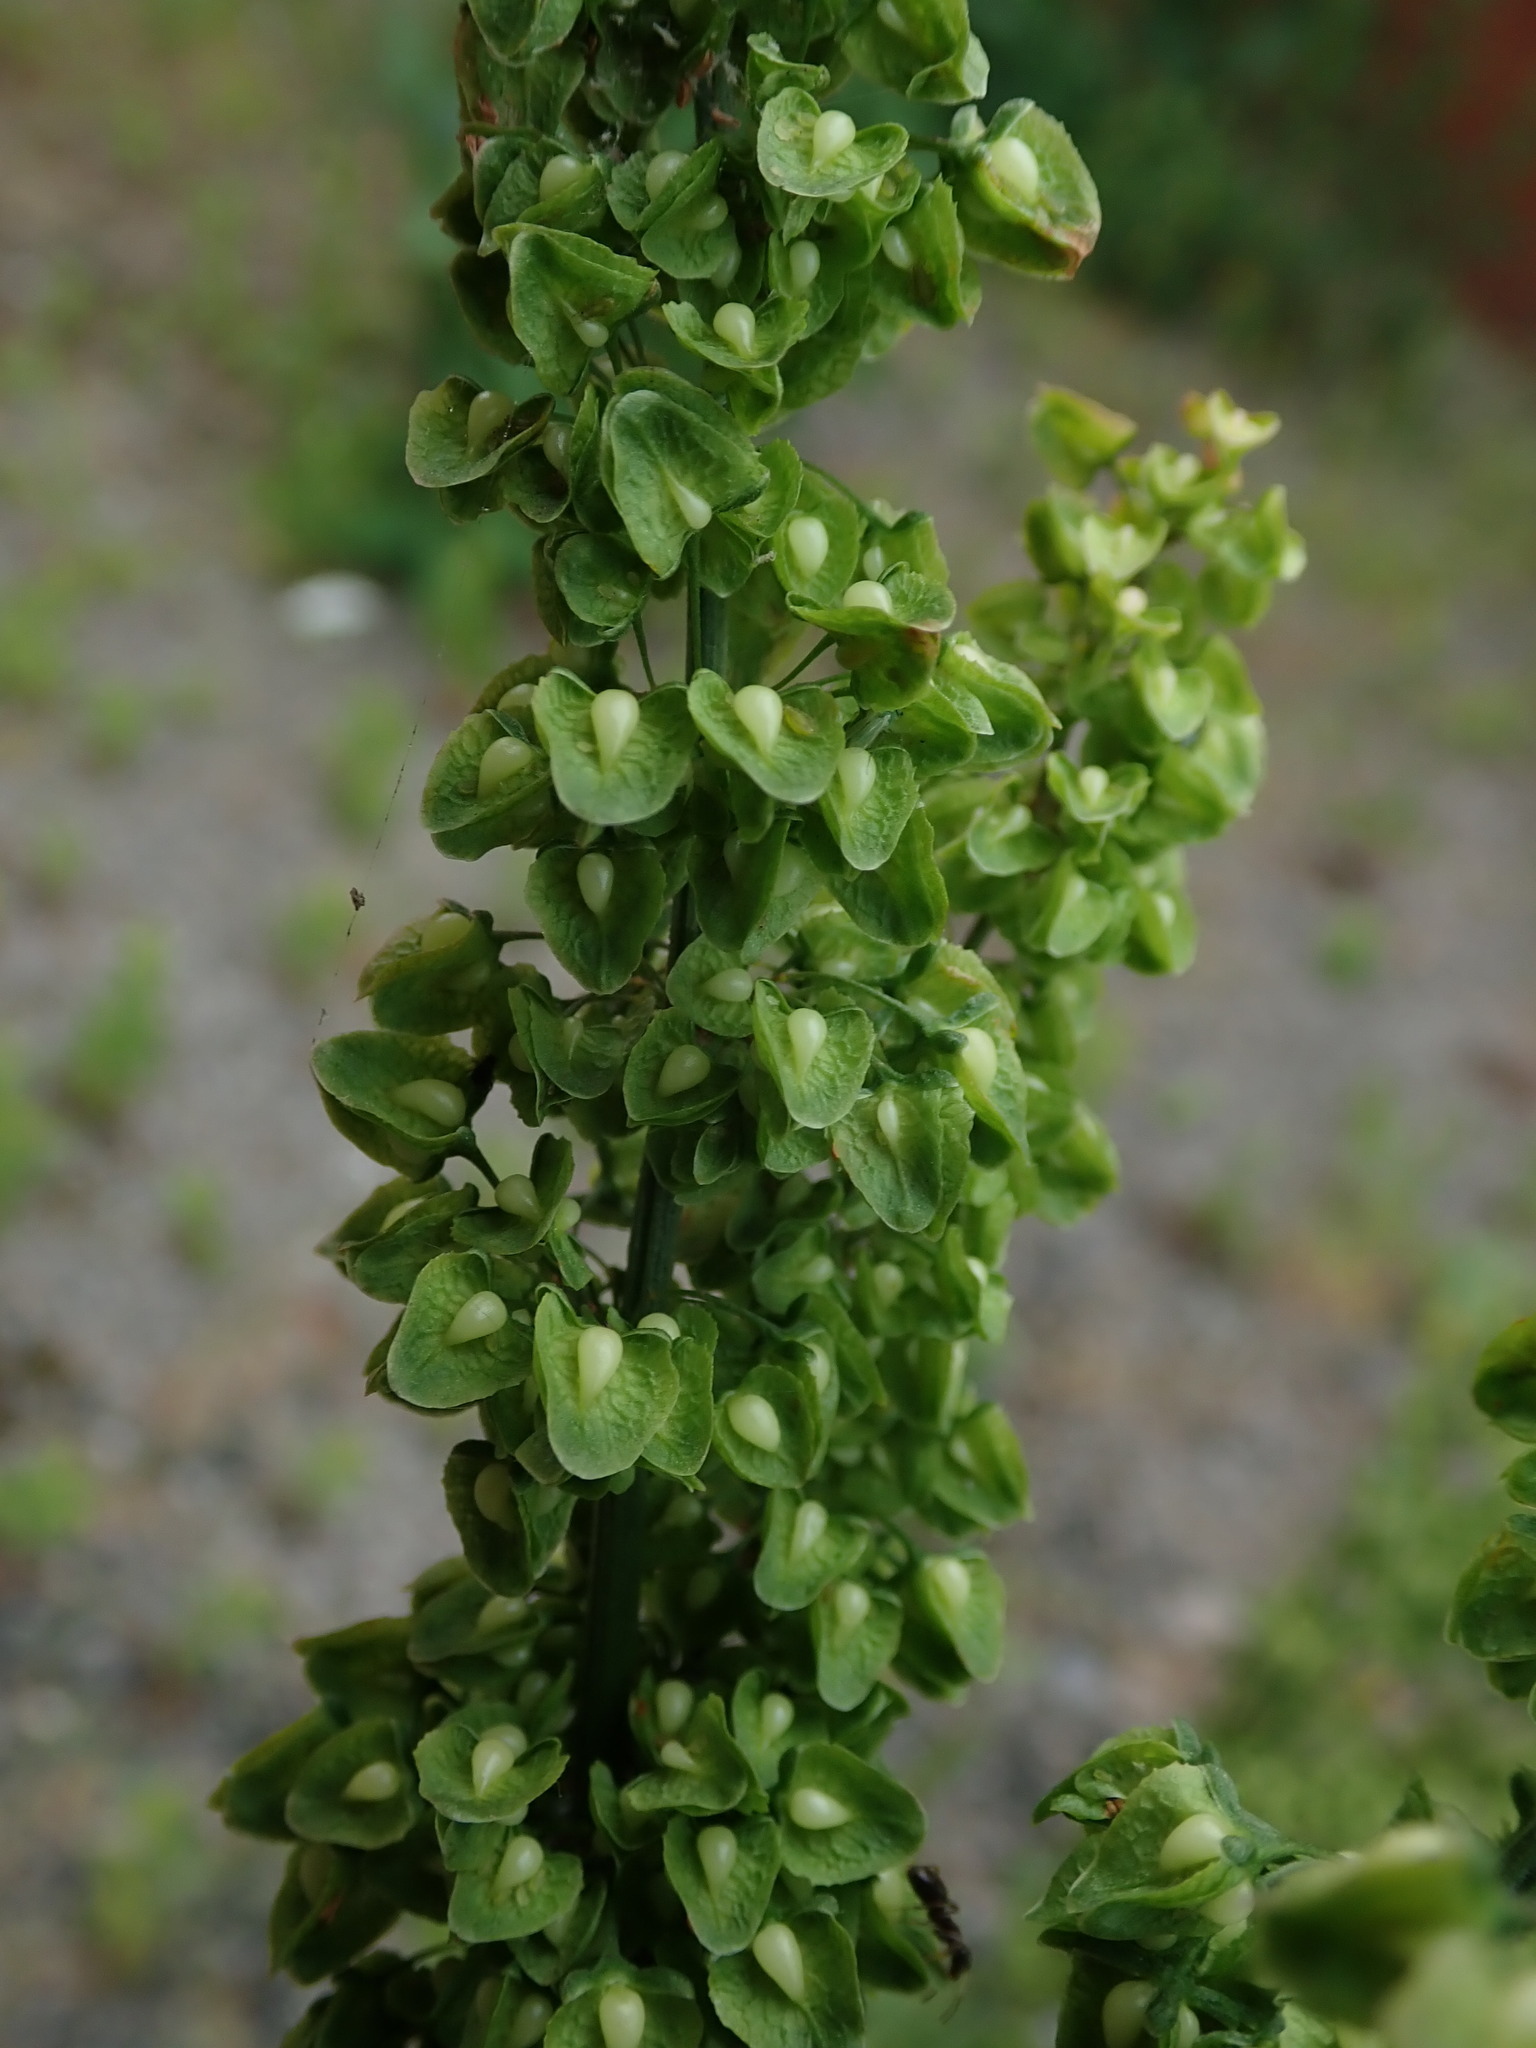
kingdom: Plantae
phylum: Tracheophyta
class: Magnoliopsida
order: Caryophyllales
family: Polygonaceae
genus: Rumex
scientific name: Rumex crispus
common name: Curled dock
